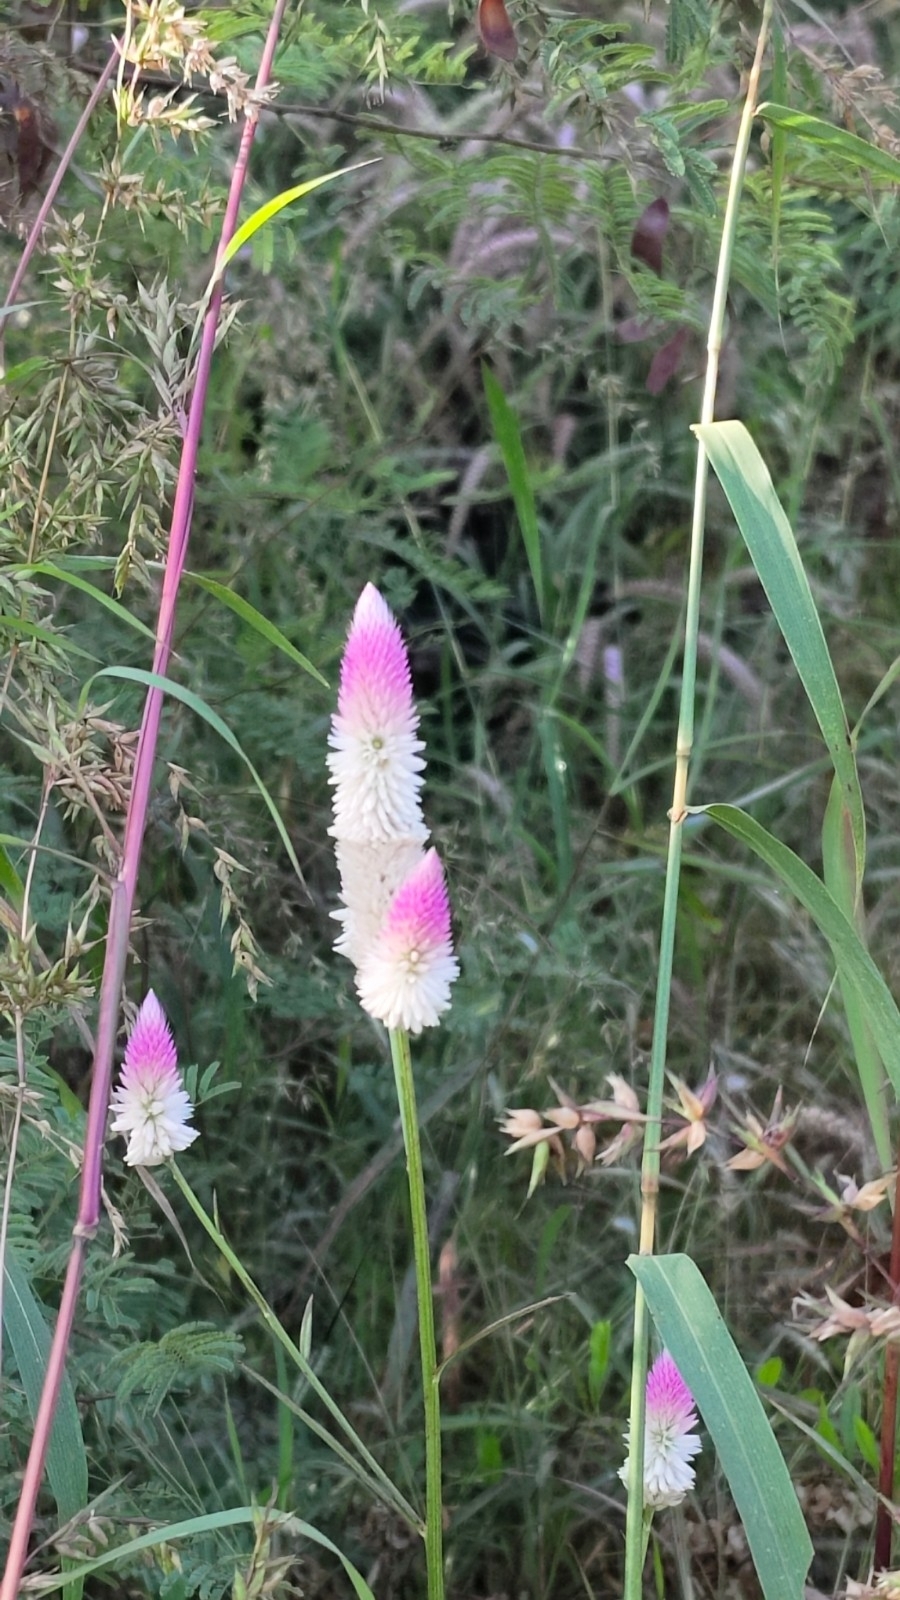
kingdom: Plantae
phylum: Tracheophyta
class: Magnoliopsida
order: Caryophyllales
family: Amaranthaceae
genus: Celosia
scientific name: Celosia argentea
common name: Feather cockscomb
